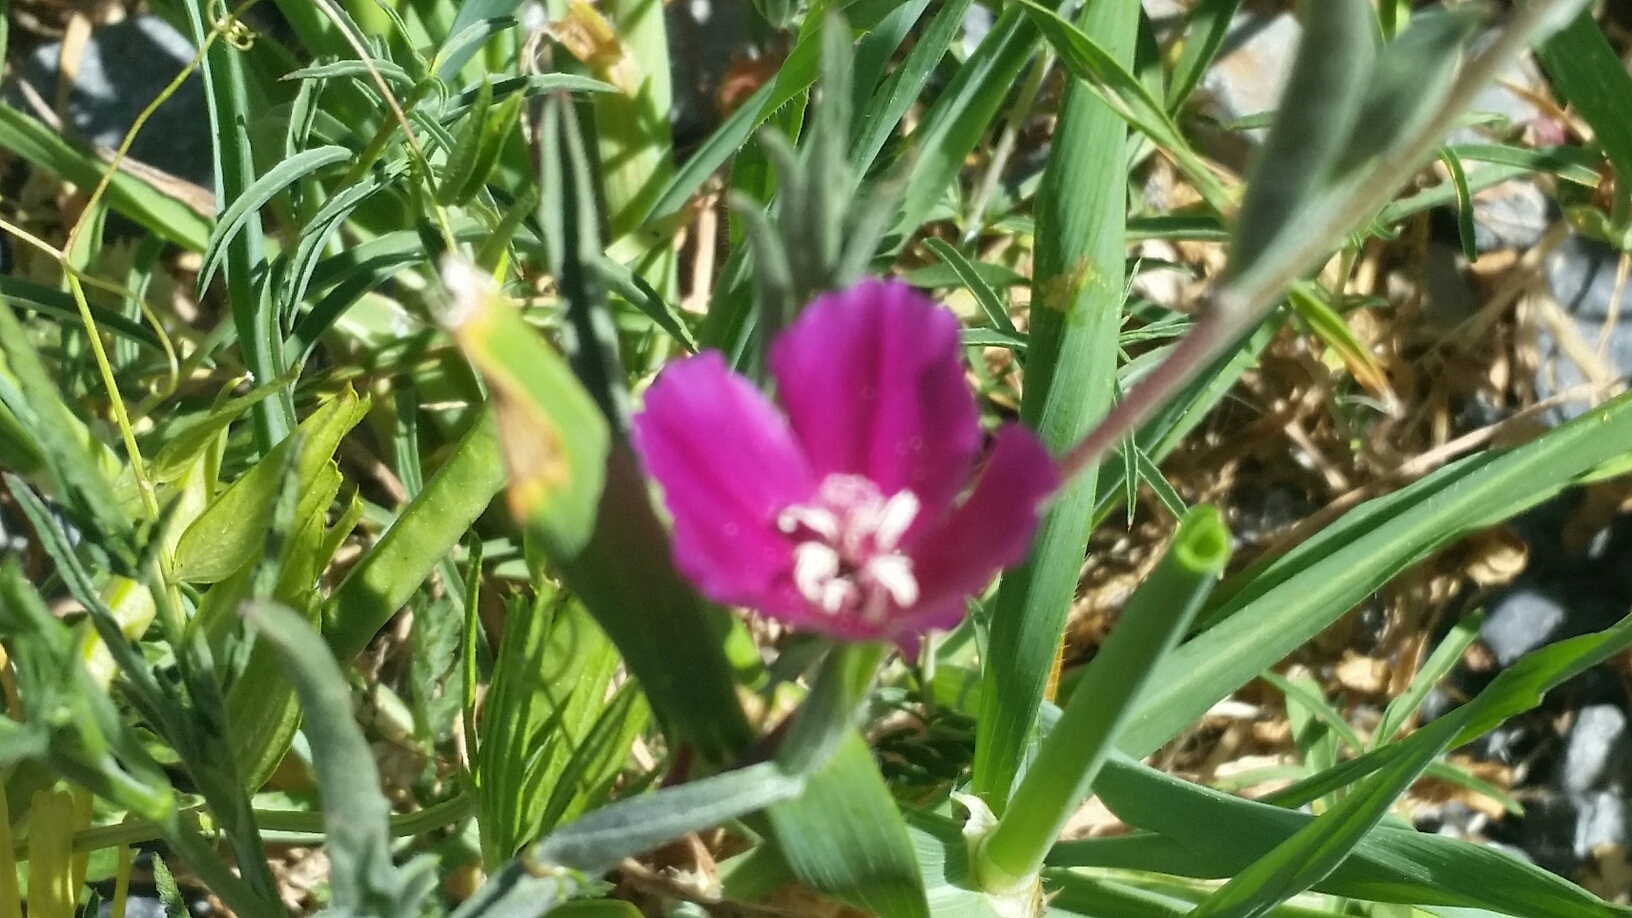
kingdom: Plantae
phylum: Tracheophyta
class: Magnoliopsida
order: Myrtales
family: Onagraceae
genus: Clarkia
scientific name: Clarkia purpurea
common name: Purple clarkia
